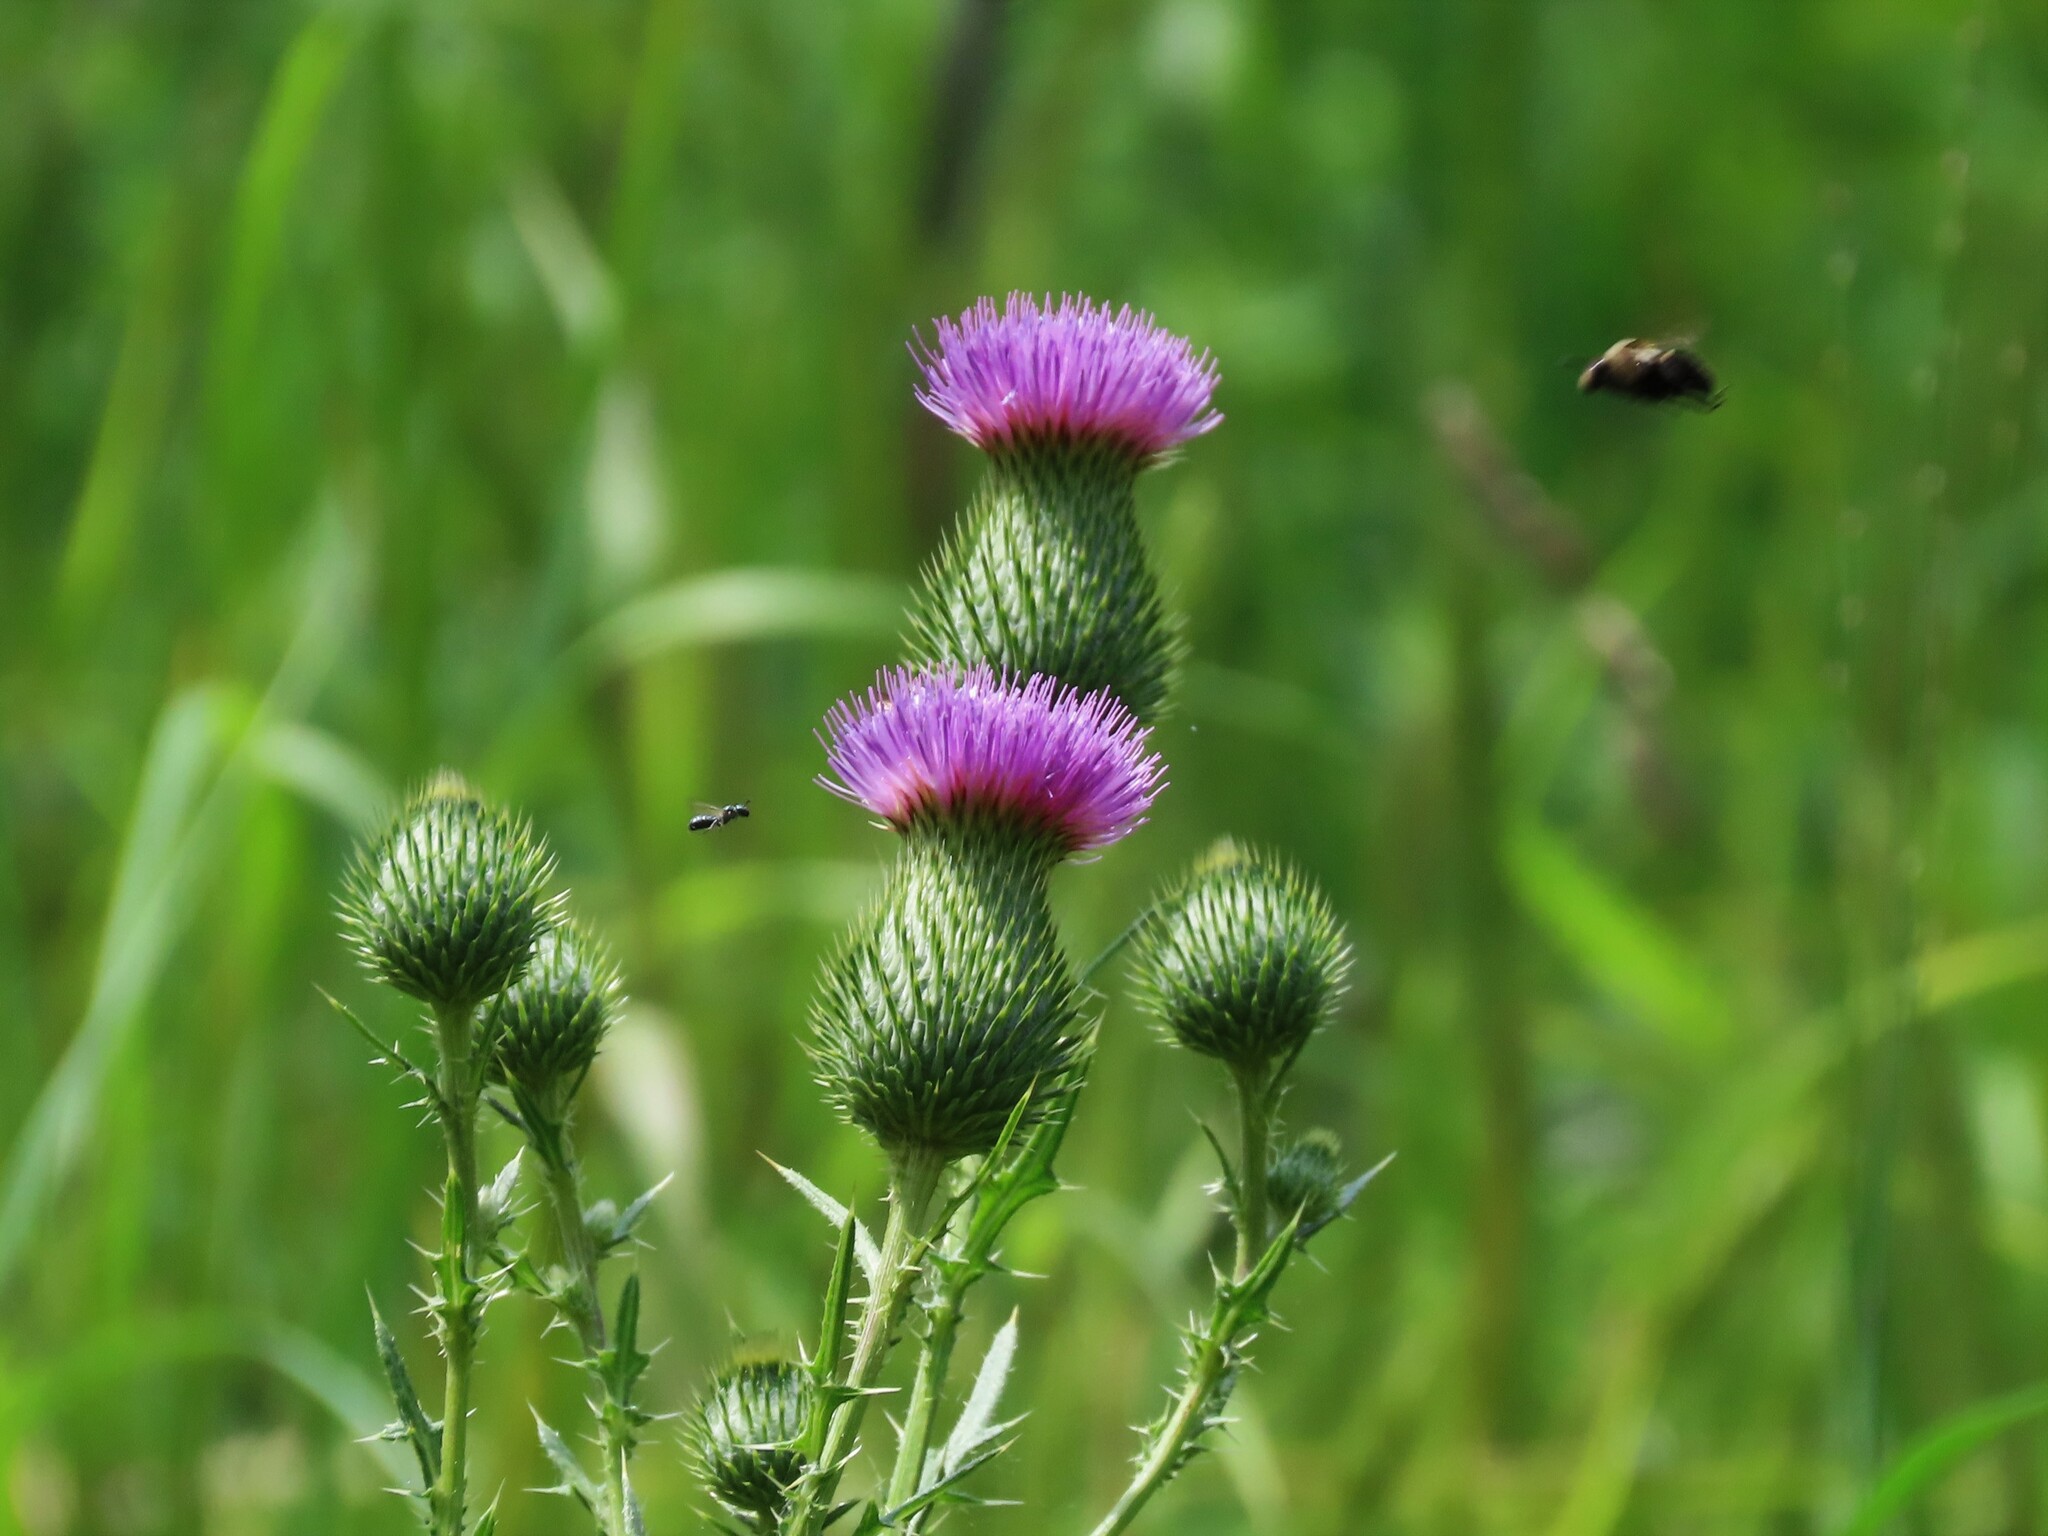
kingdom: Plantae
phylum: Tracheophyta
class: Magnoliopsida
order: Asterales
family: Asteraceae
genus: Cirsium
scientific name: Cirsium vulgare
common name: Bull thistle
